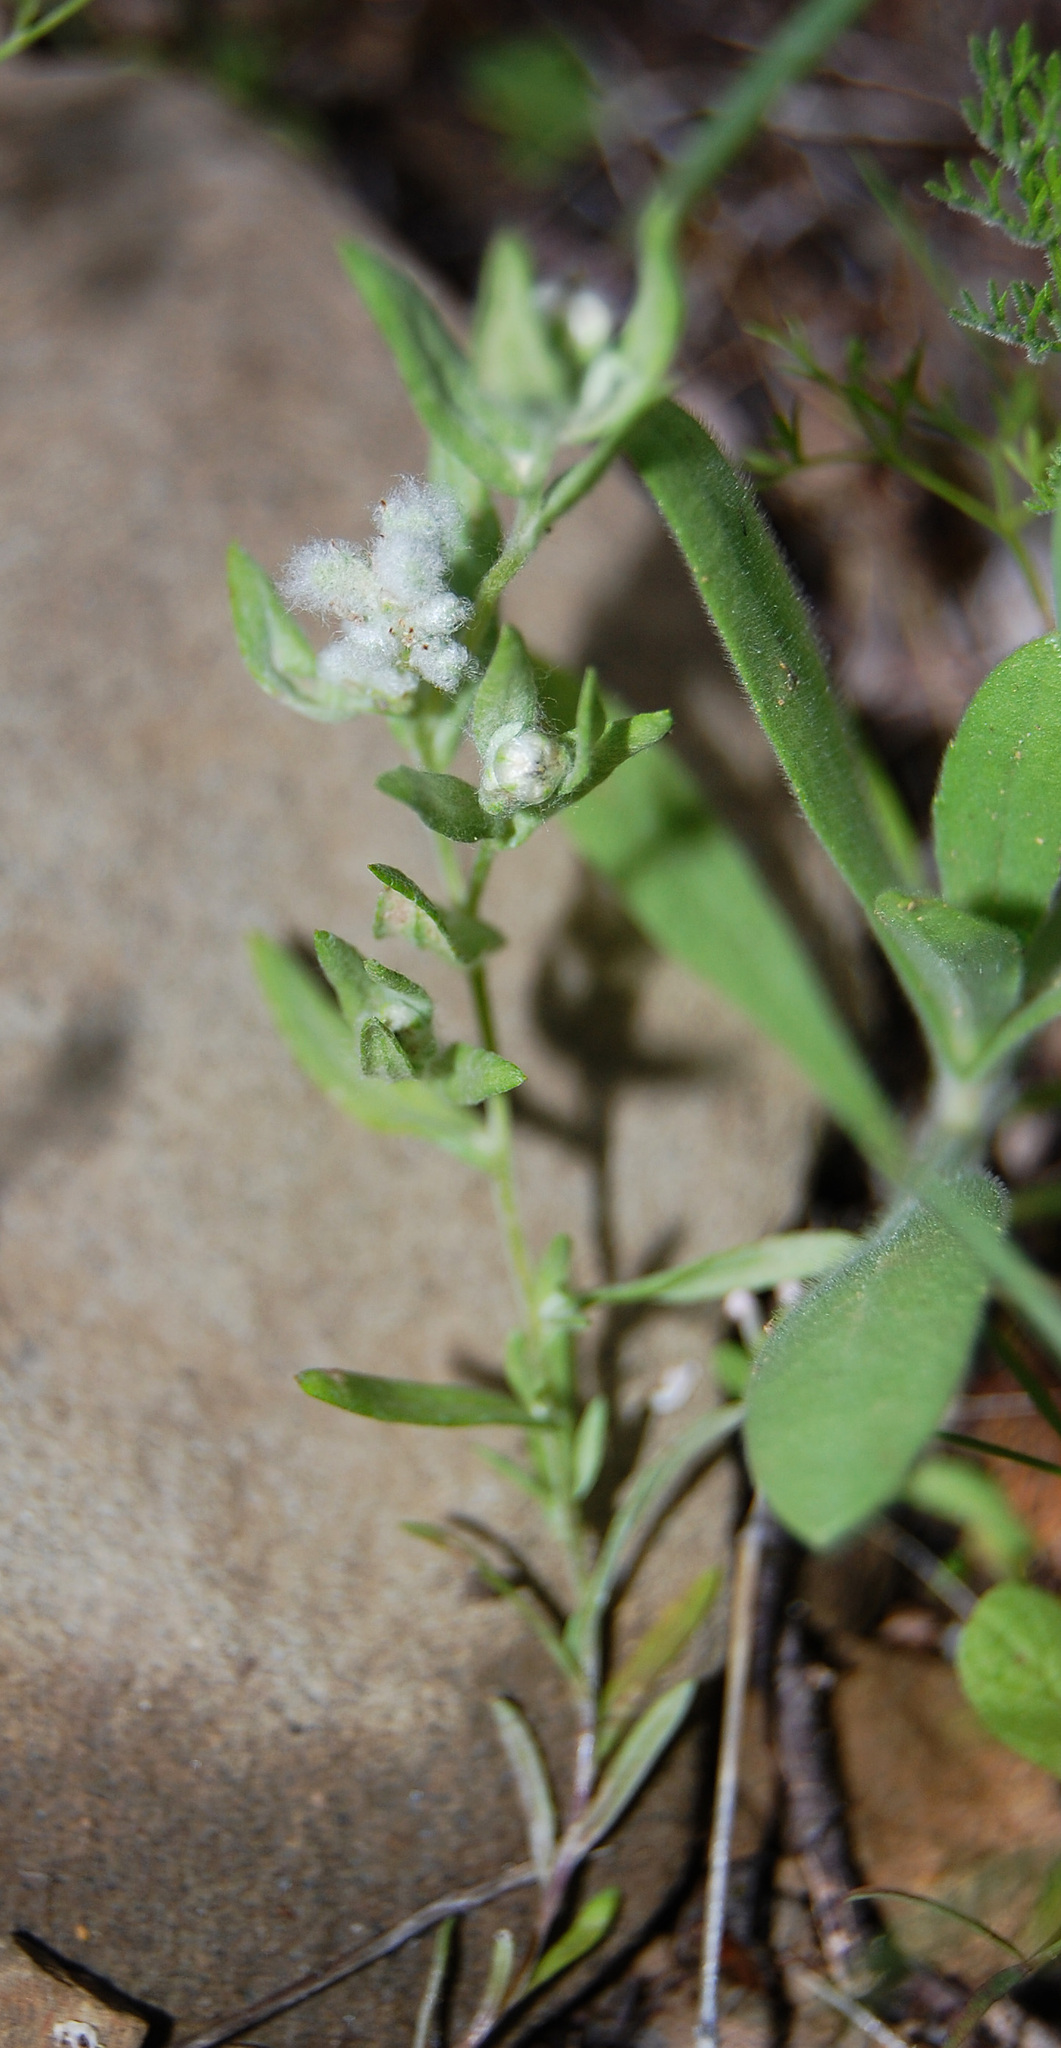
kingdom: Plantae
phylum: Tracheophyta
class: Magnoliopsida
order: Asterales
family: Asteraceae
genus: Bombycilaena
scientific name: Bombycilaena californica
